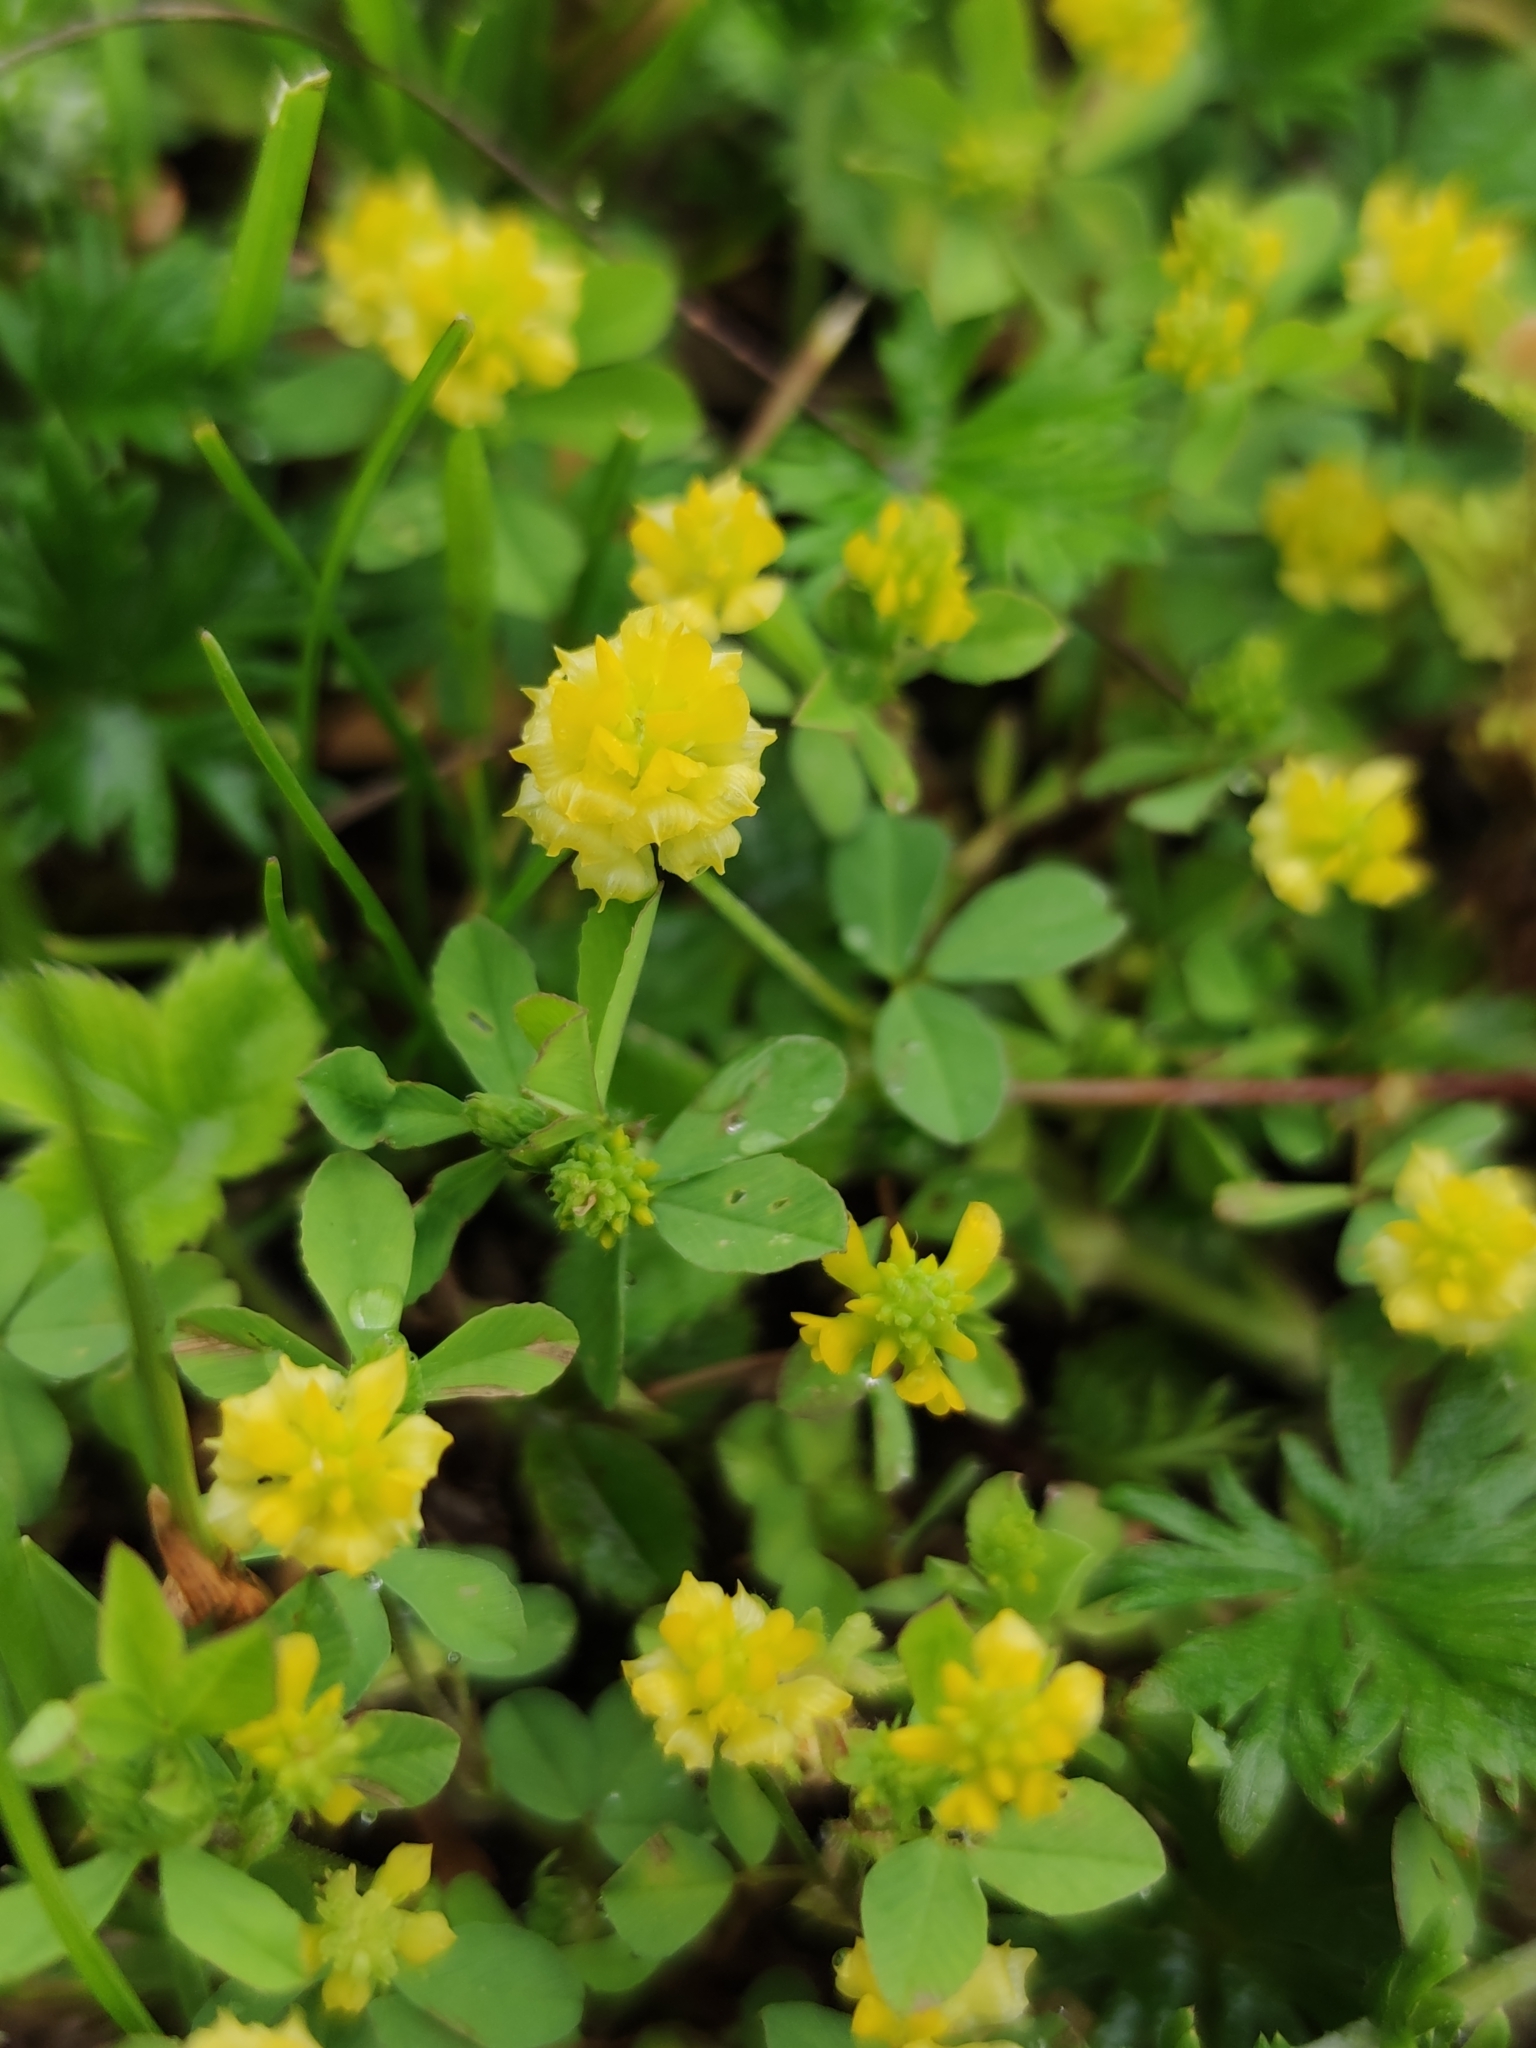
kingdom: Plantae
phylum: Tracheophyta
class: Magnoliopsida
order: Fabales
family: Fabaceae
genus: Trifolium
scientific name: Trifolium campestre
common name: Field clover
